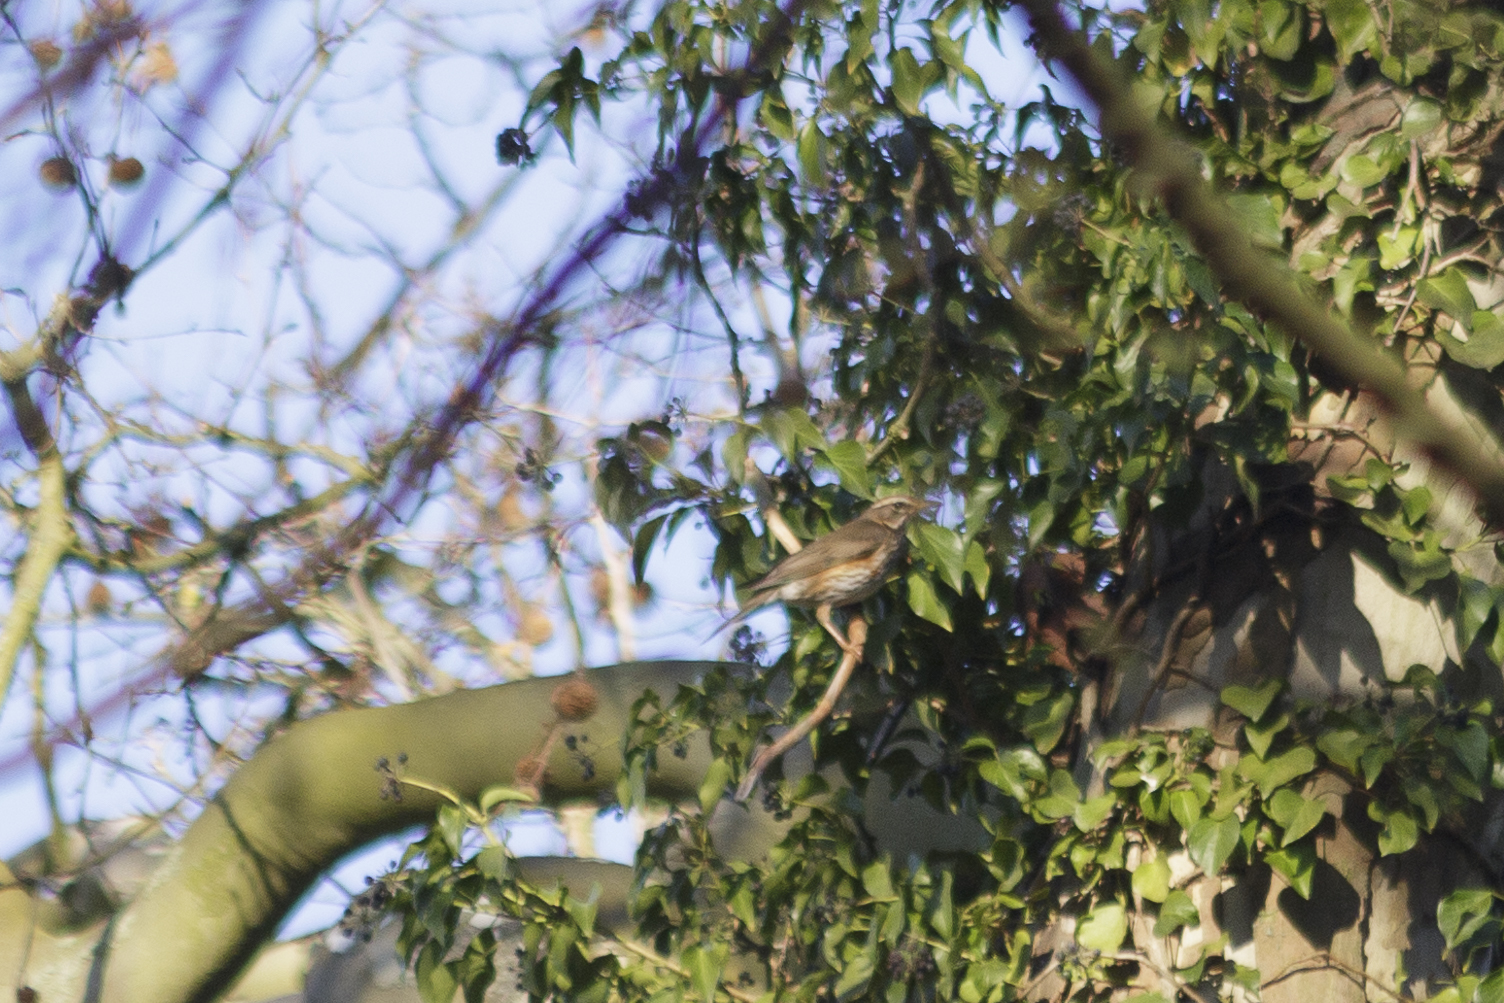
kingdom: Animalia
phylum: Chordata
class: Aves
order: Passeriformes
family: Turdidae
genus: Turdus
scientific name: Turdus iliacus
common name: Redwing
